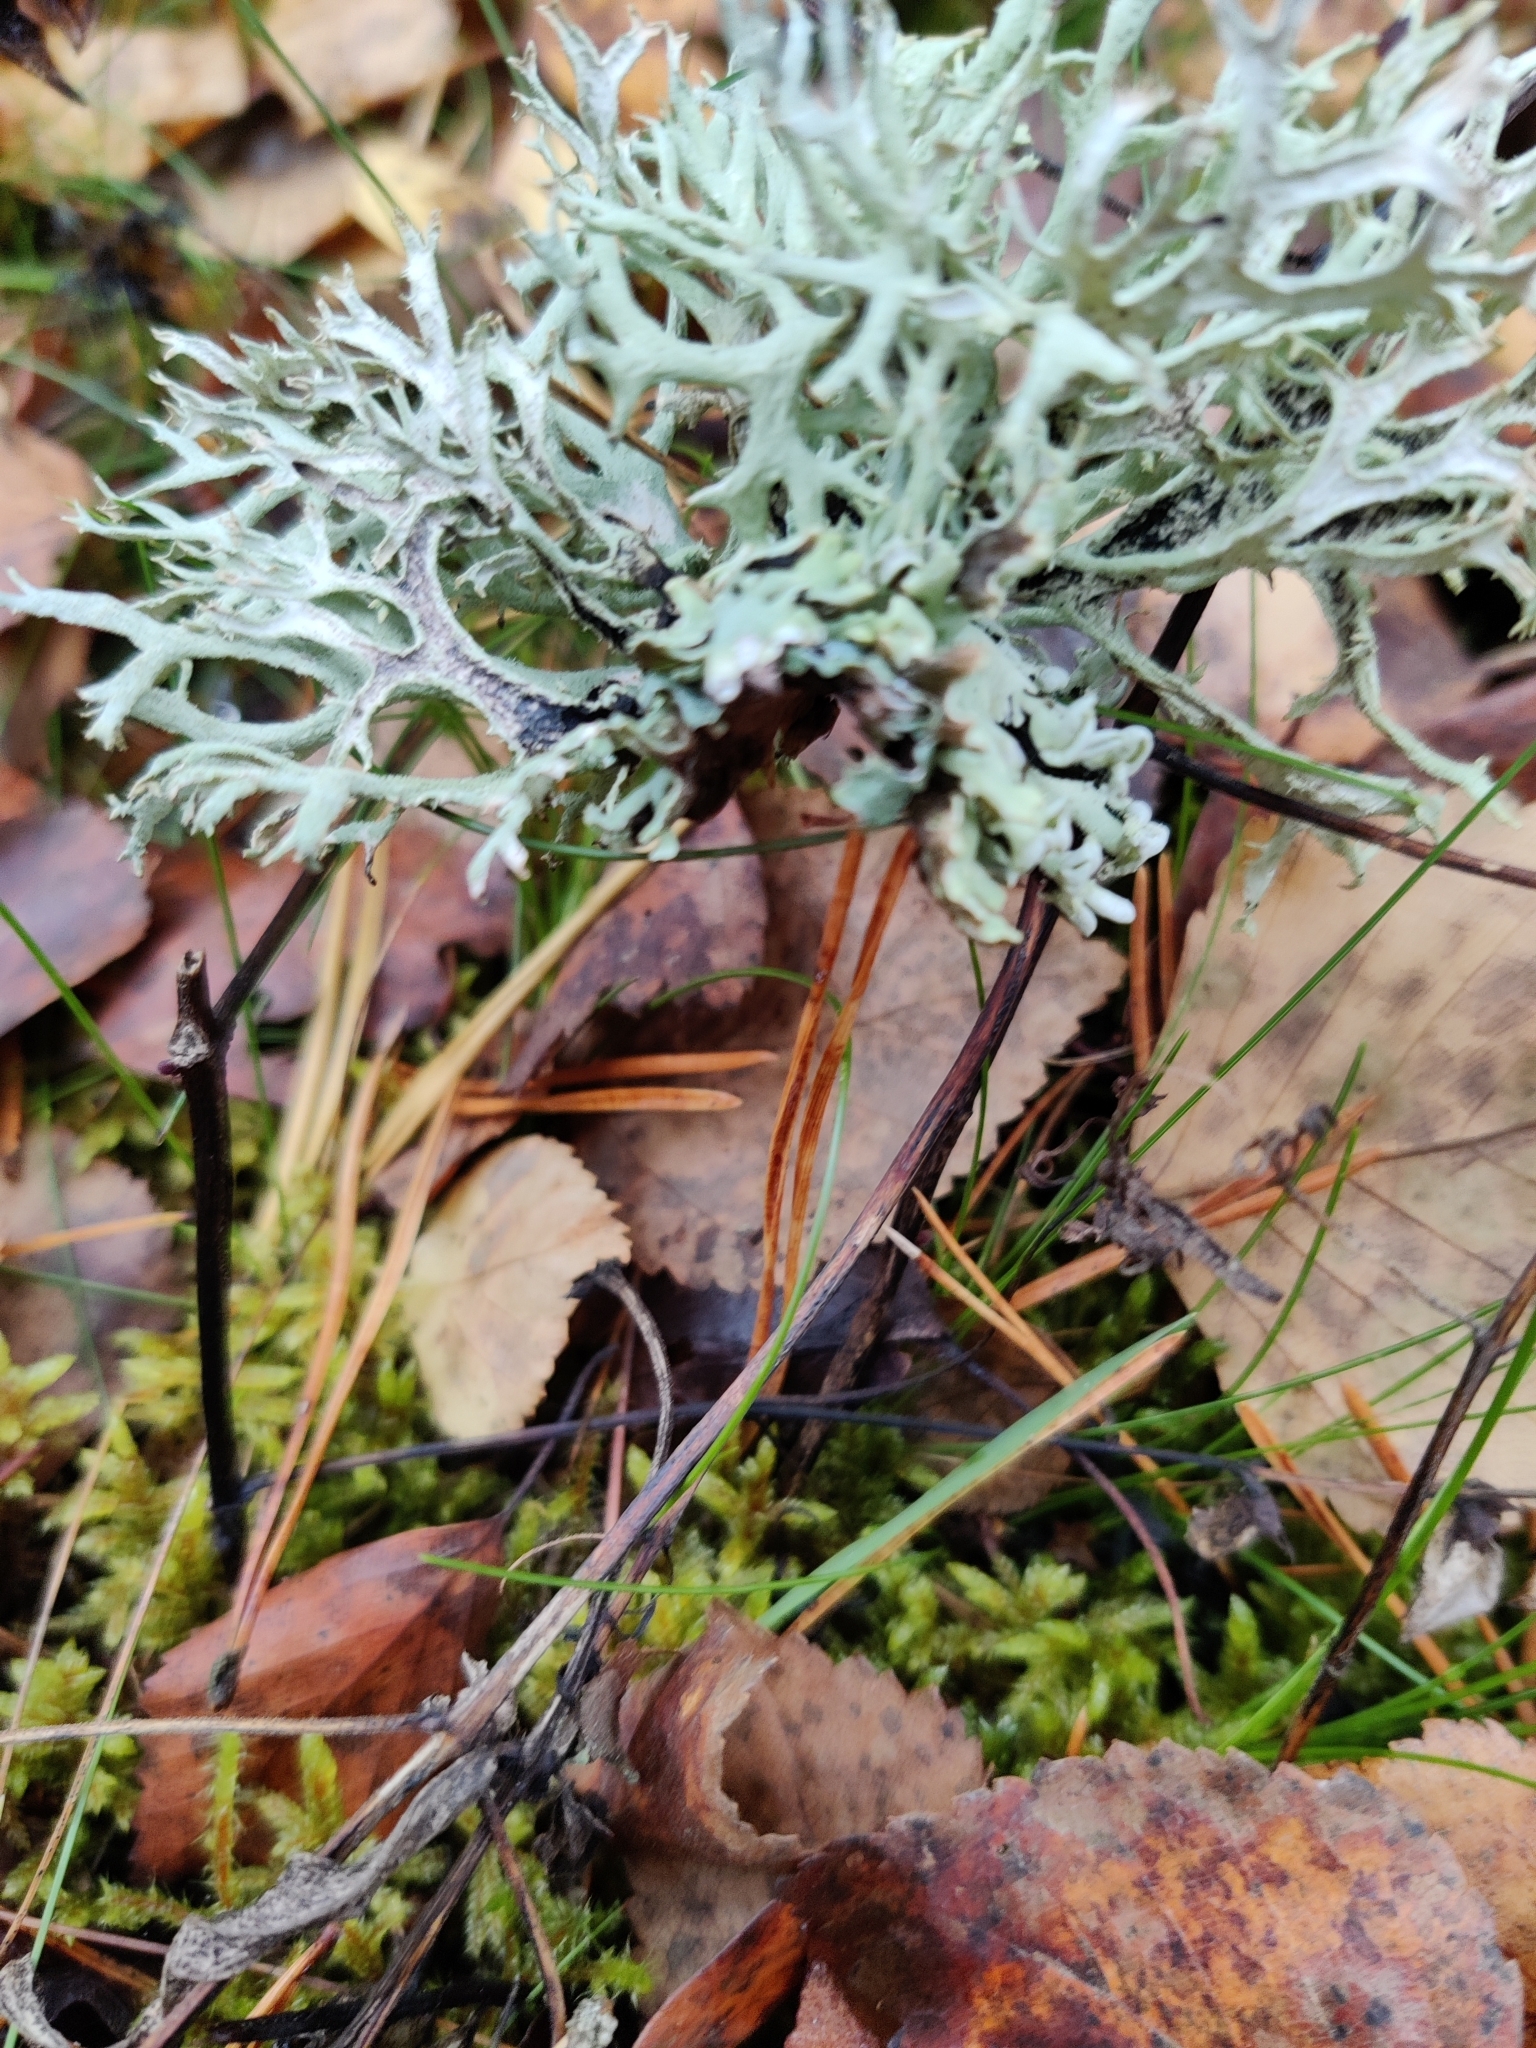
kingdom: Fungi
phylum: Ascomycota
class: Lecanoromycetes
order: Lecanorales
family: Parmeliaceae
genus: Pseudevernia
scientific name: Pseudevernia furfuracea
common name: Tree moss
